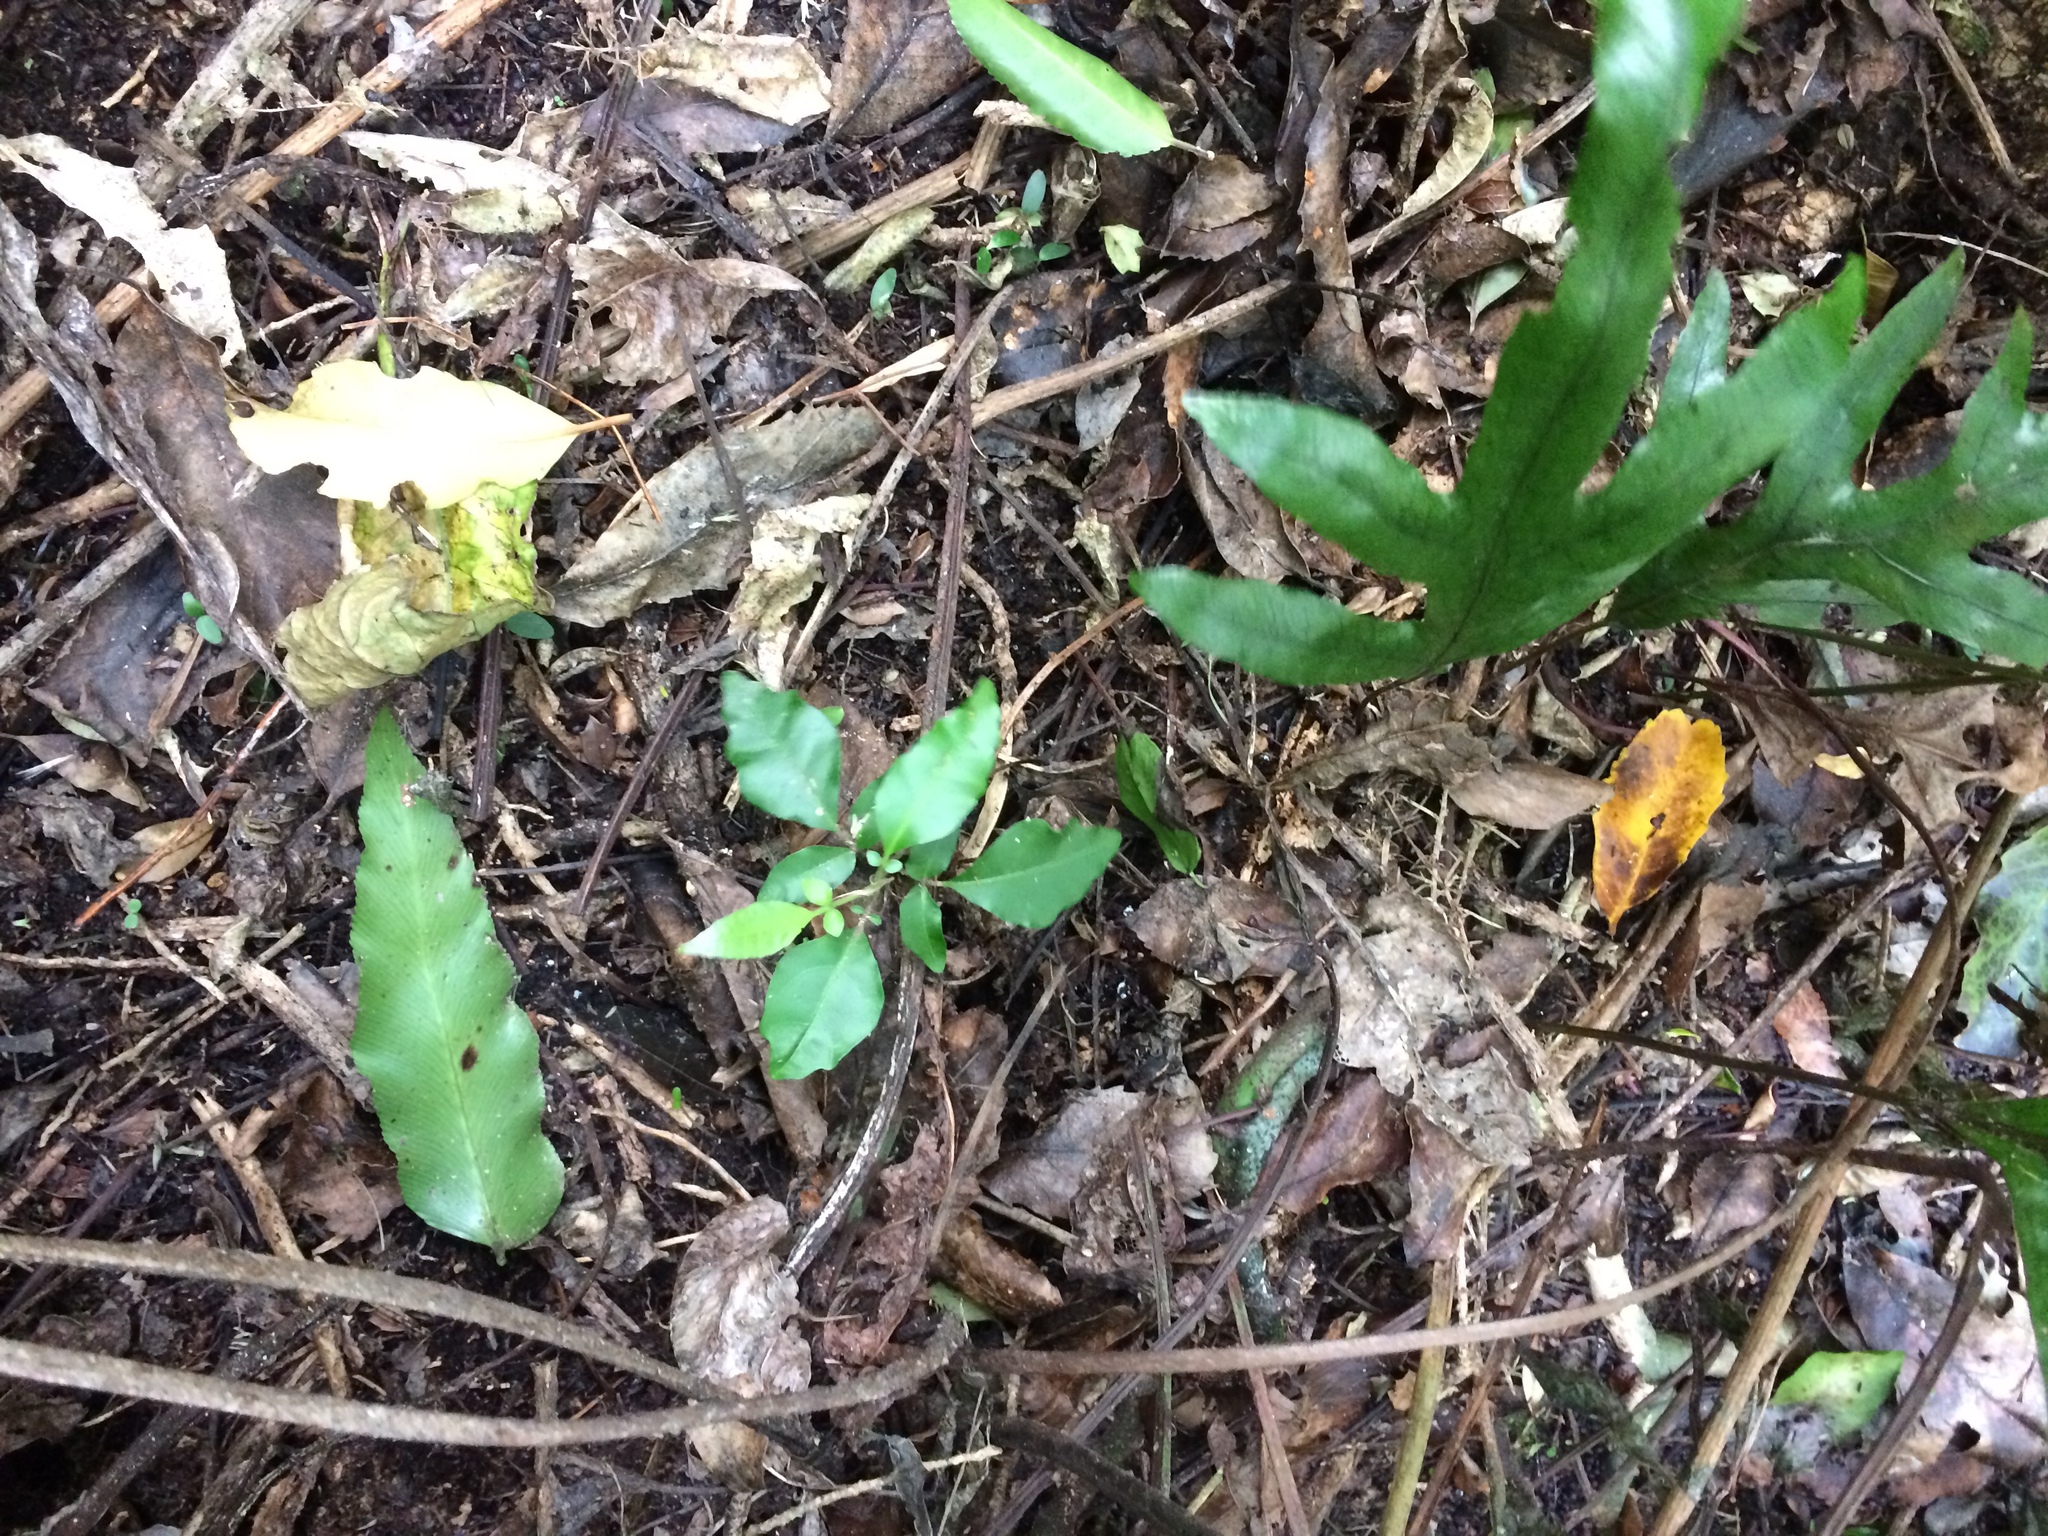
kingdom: Plantae
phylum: Tracheophyta
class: Magnoliopsida
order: Sapindales
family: Meliaceae
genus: Didymocheton
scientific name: Didymocheton spectabilis
